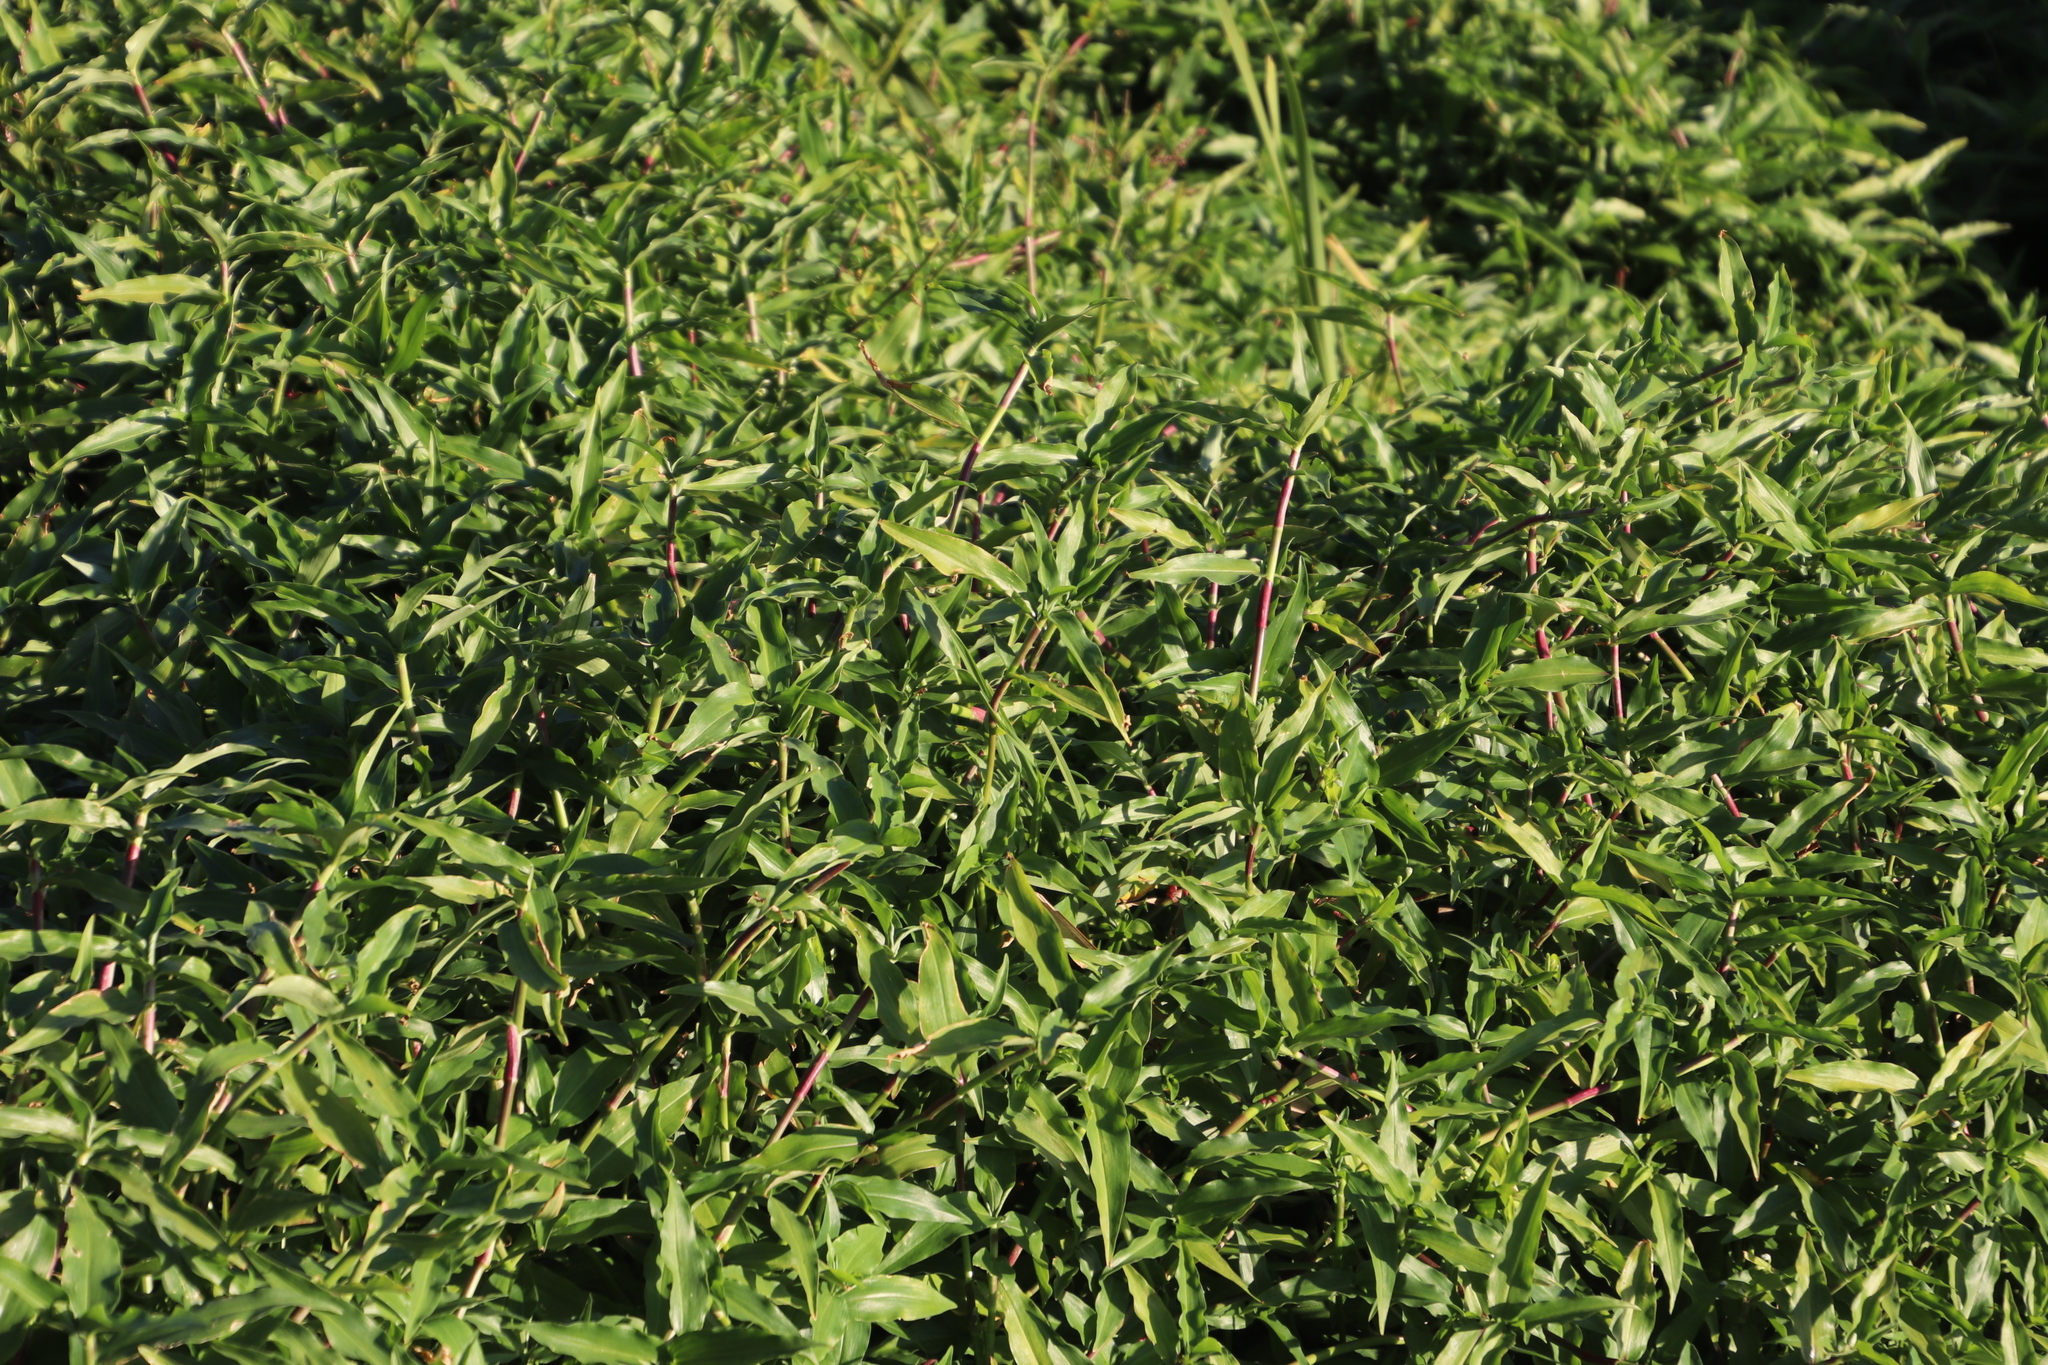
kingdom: Plantae
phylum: Tracheophyta
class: Liliopsida
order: Commelinales
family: Commelinaceae
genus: Commelina
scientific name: Commelina diffusa
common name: Climbing dayflower
